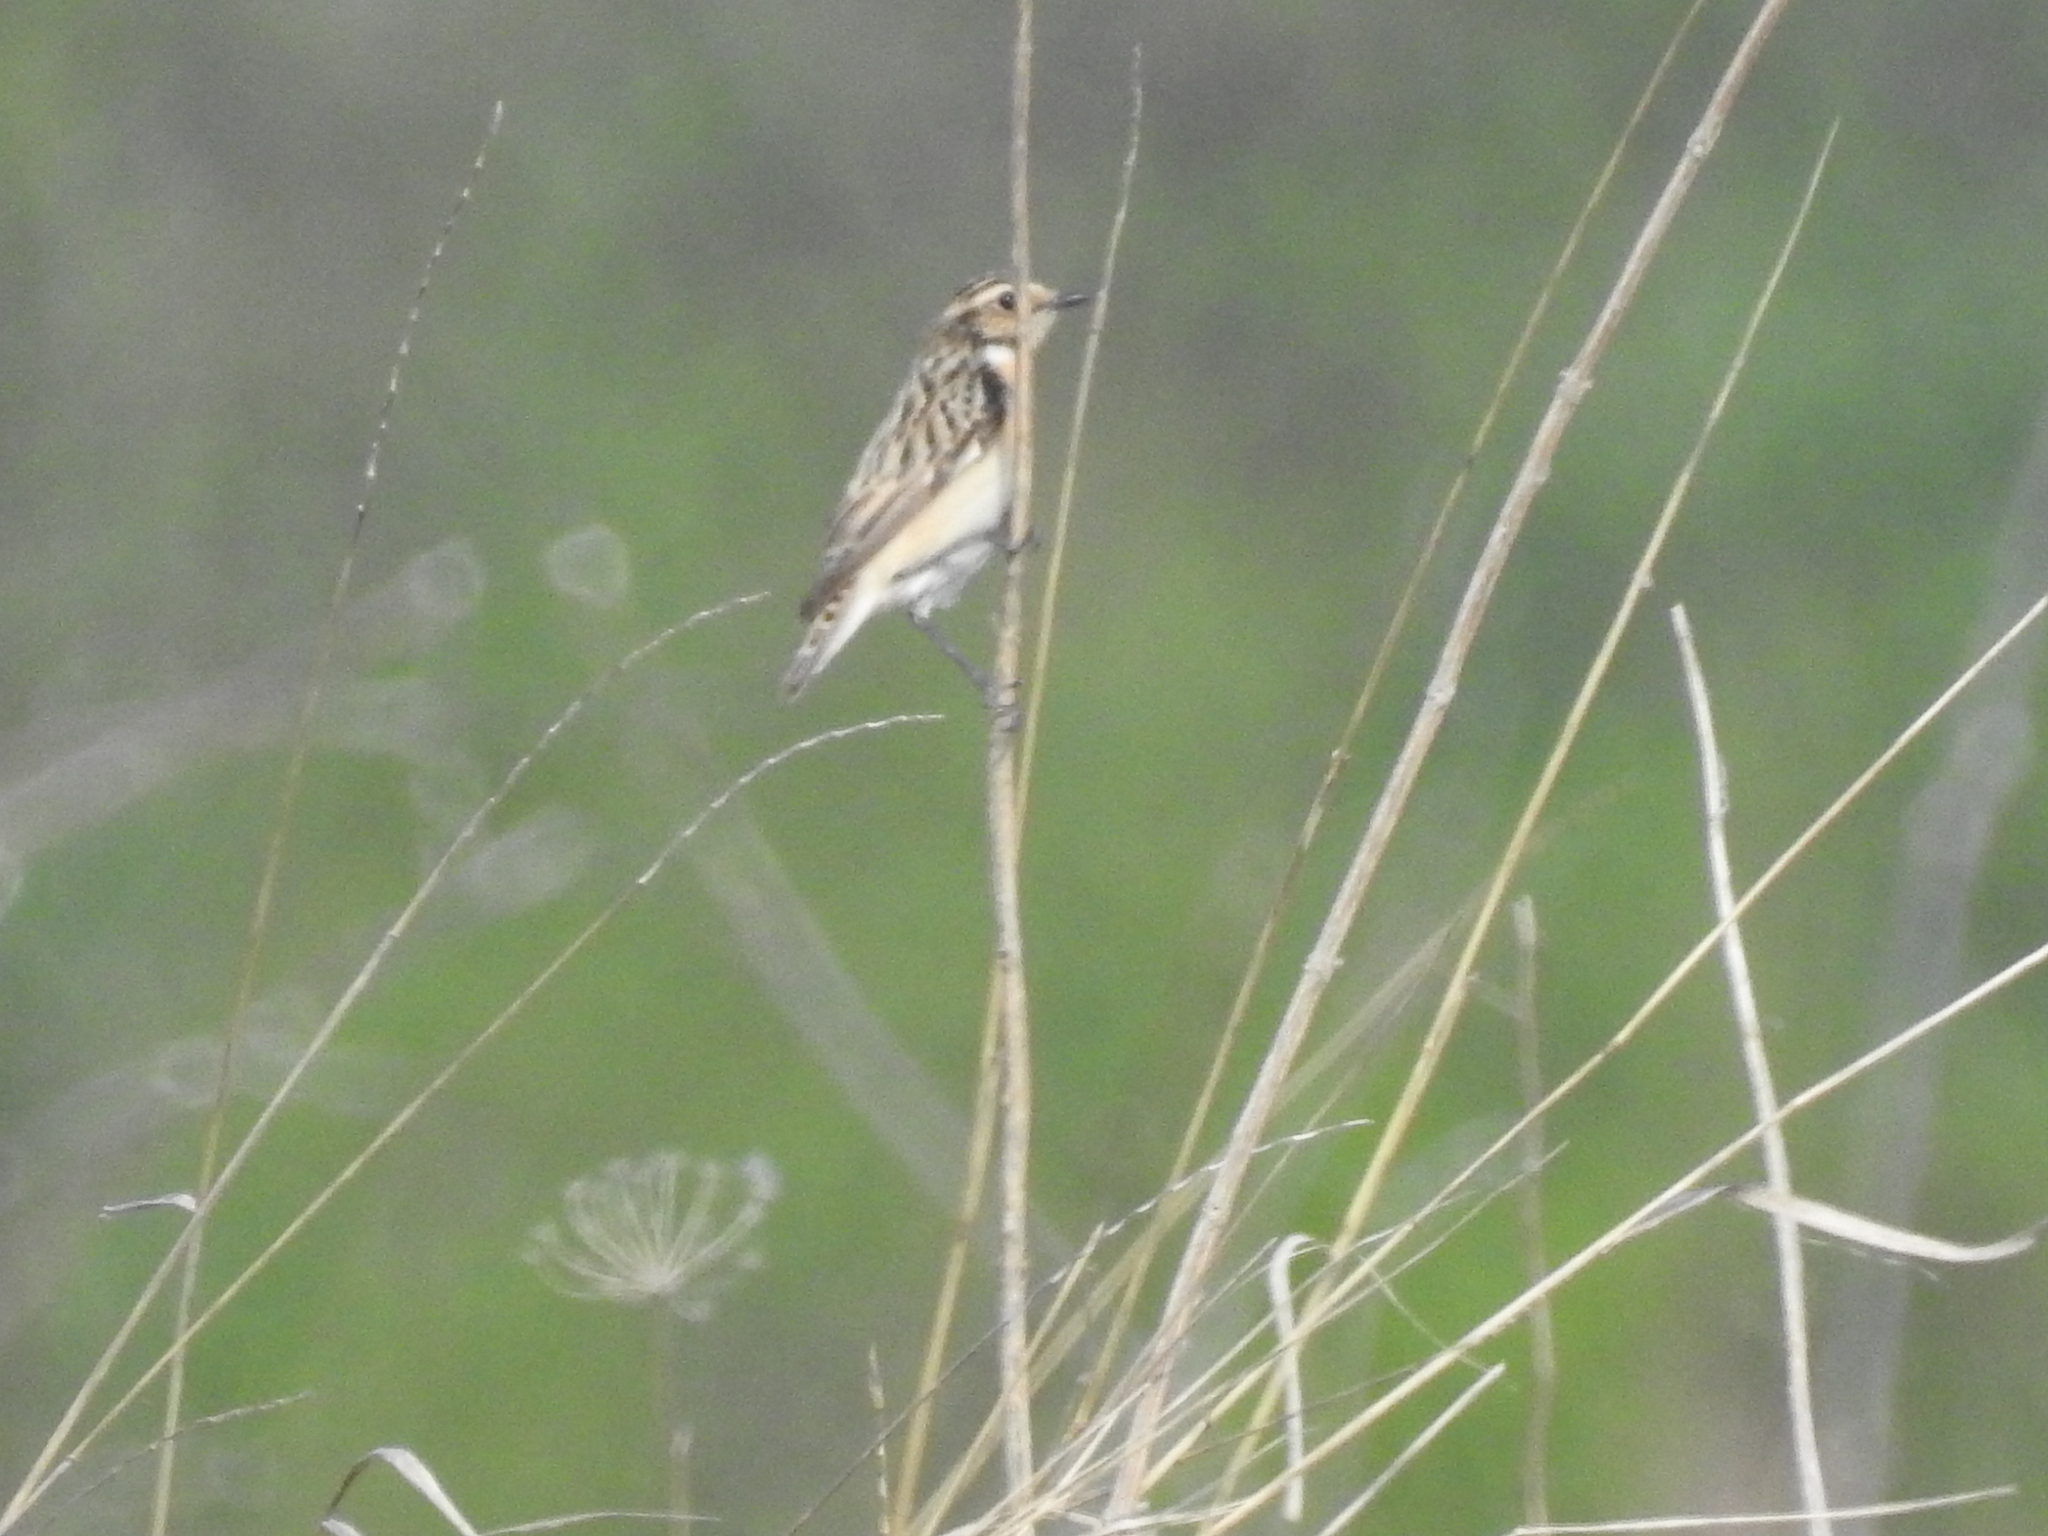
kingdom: Animalia
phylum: Chordata
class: Aves
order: Passeriformes
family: Muscicapidae
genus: Saxicola
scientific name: Saxicola rubetra
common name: Whinchat
